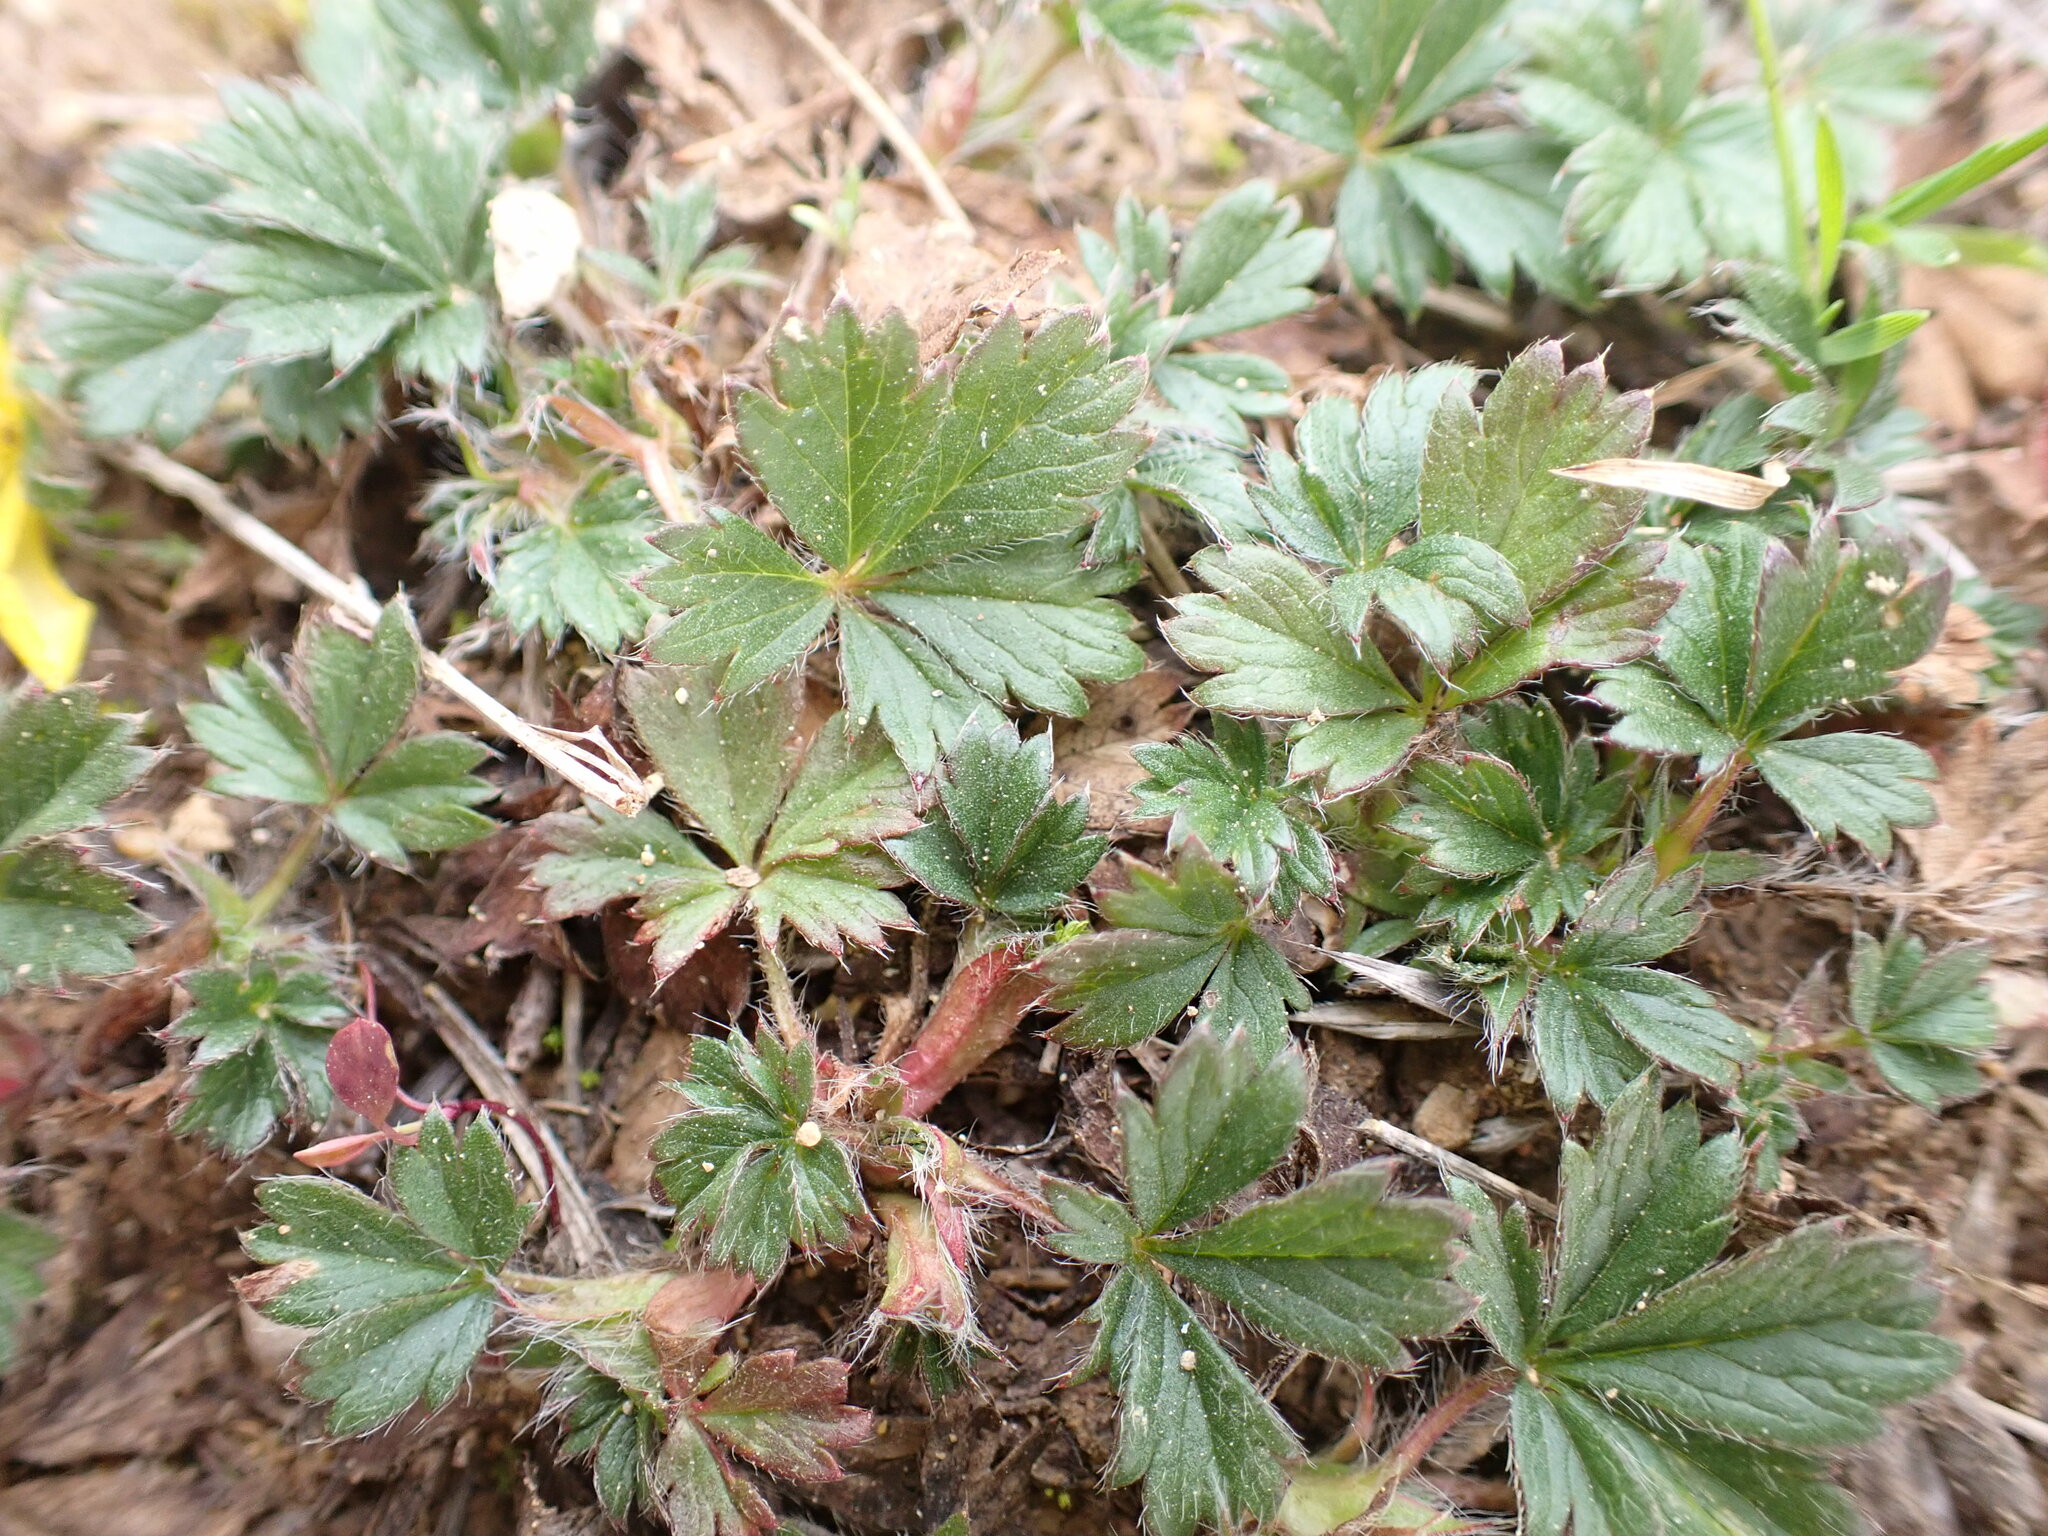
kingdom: Plantae
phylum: Tracheophyta
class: Magnoliopsida
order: Rosales
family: Rosaceae
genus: Potentilla
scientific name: Potentilla verna
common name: Spring cinquefoil
